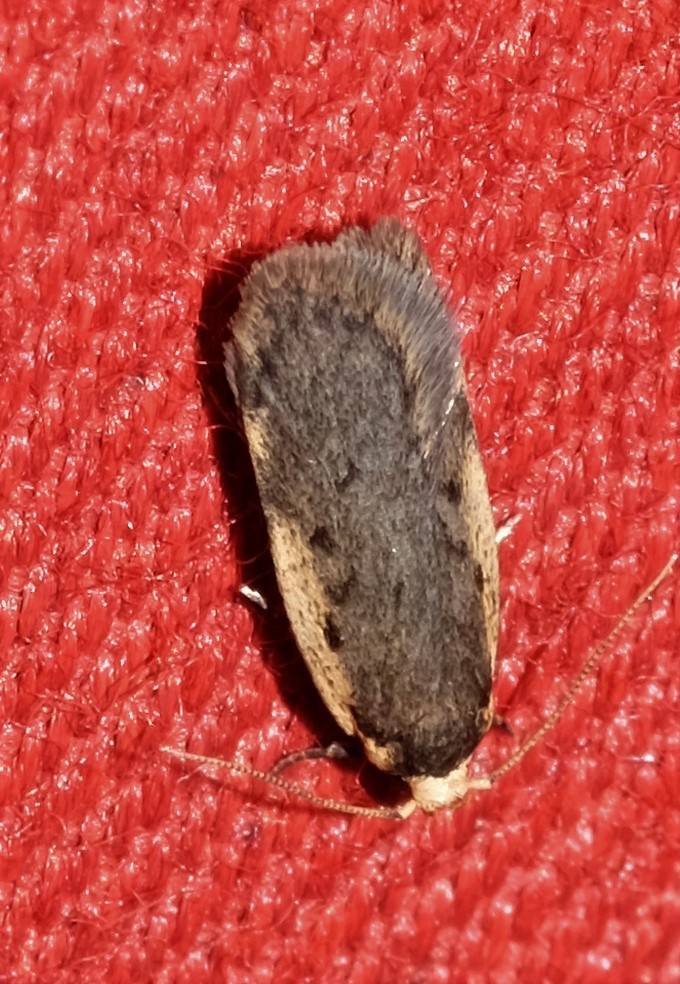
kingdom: Animalia
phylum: Arthropoda
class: Insecta
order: Lepidoptera
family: Oecophoridae
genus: Hoplostega
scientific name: Hoplostega ochroma
